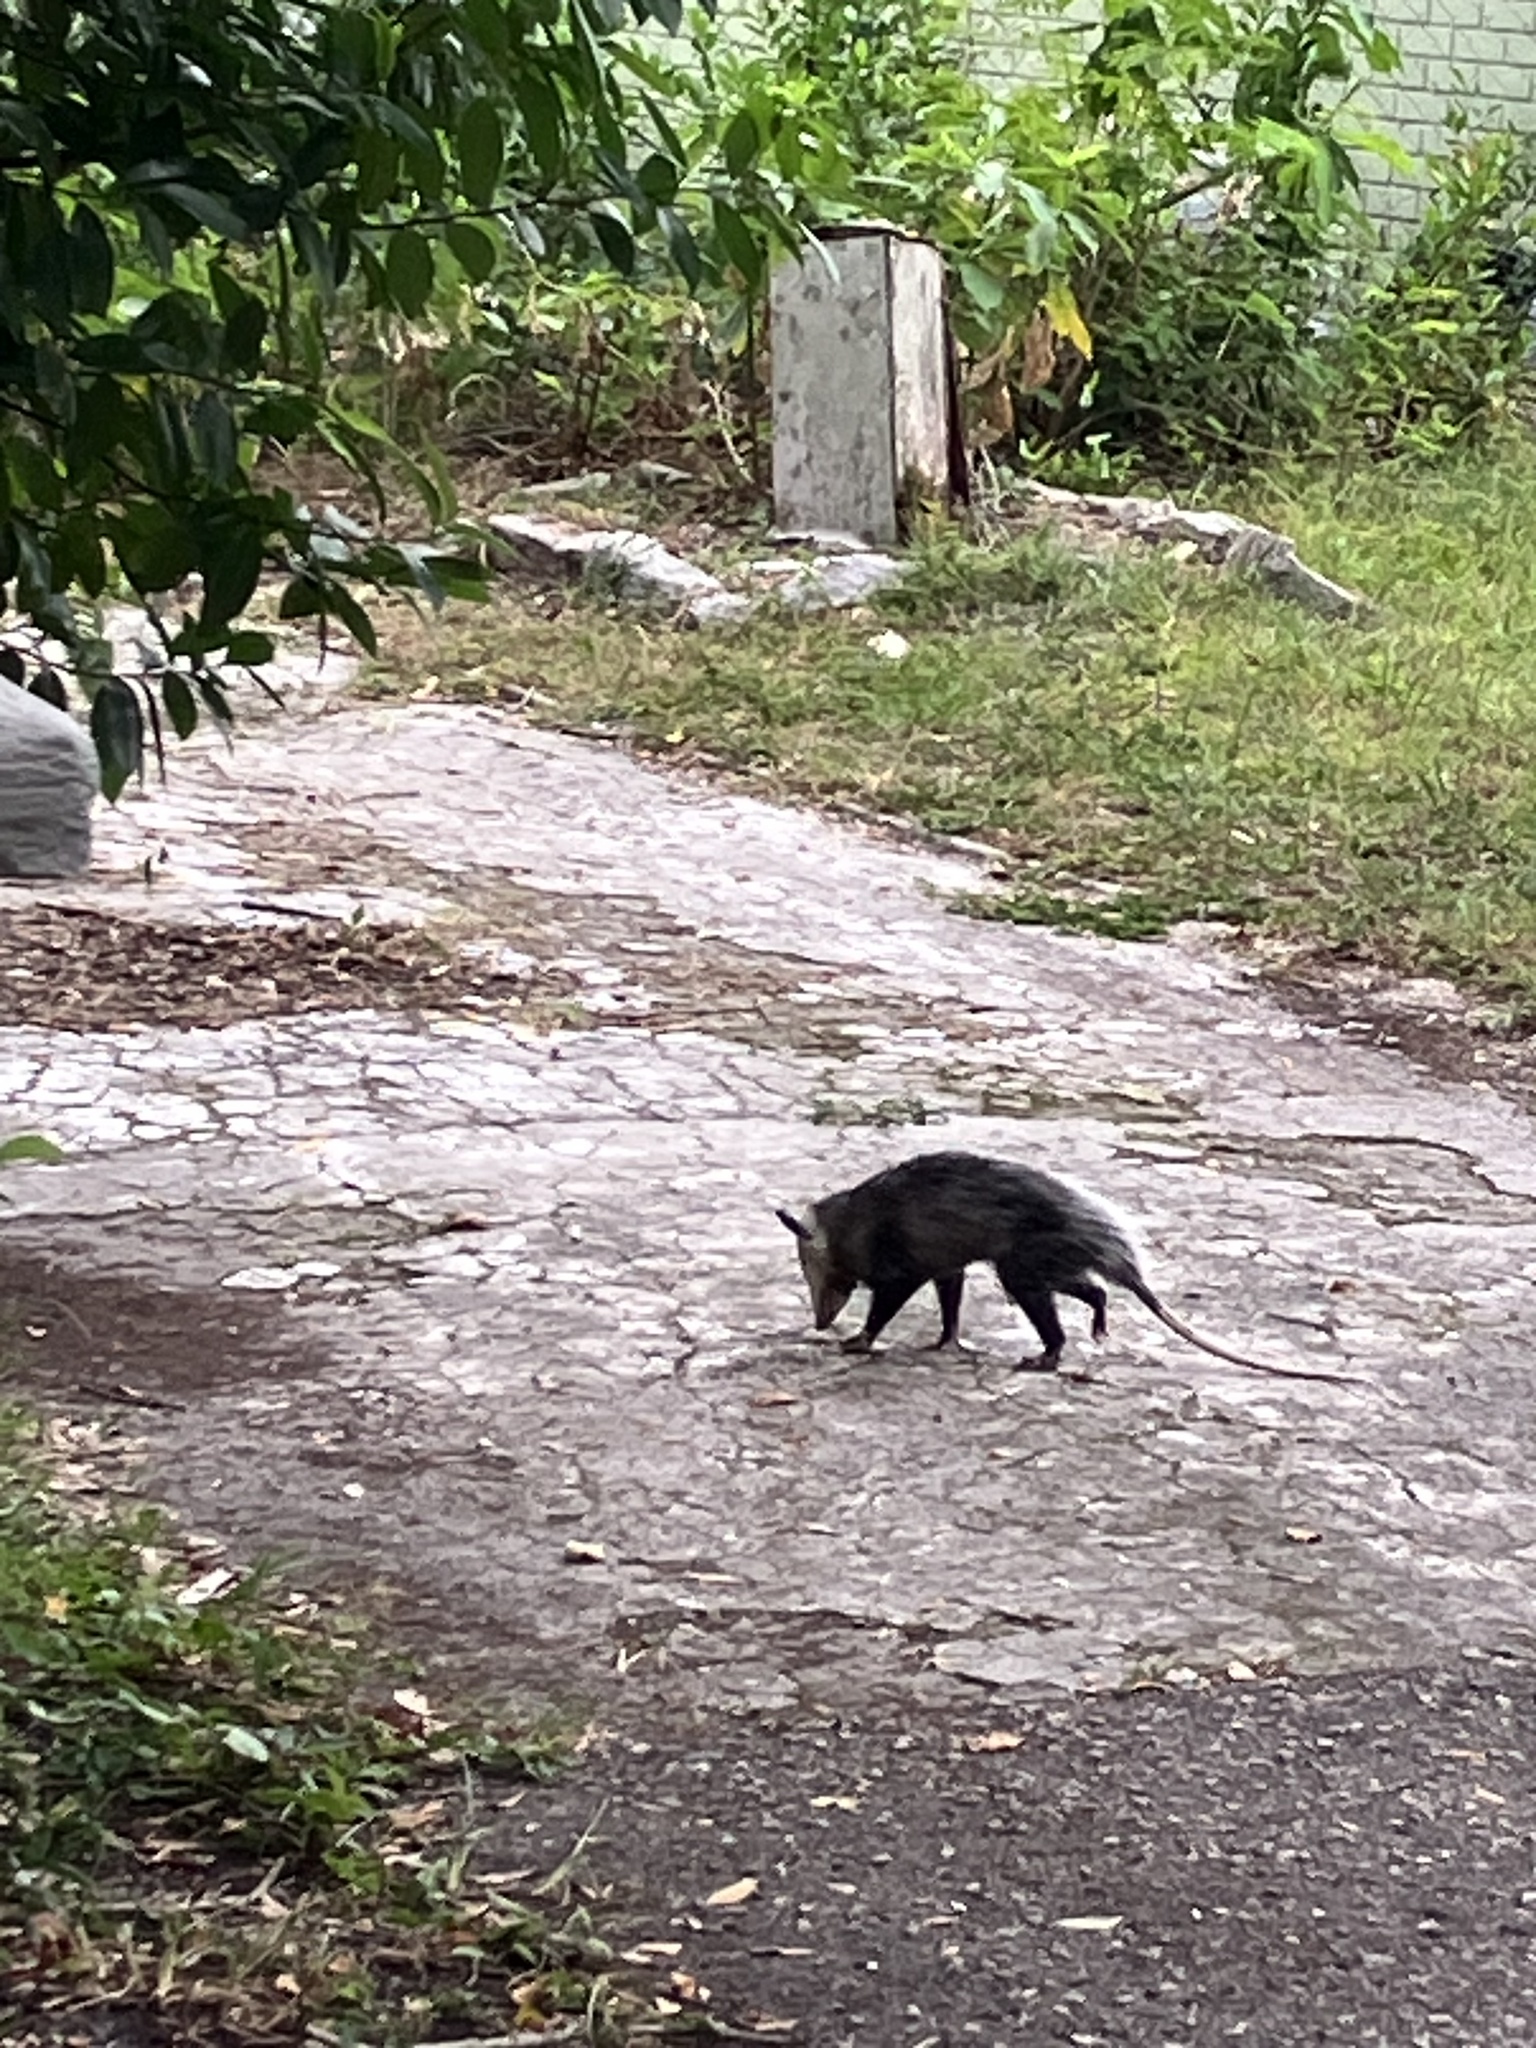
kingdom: Animalia
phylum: Chordata
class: Mammalia
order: Didelphimorphia
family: Didelphidae
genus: Didelphis
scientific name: Didelphis virginiana
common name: Virginia opossum
